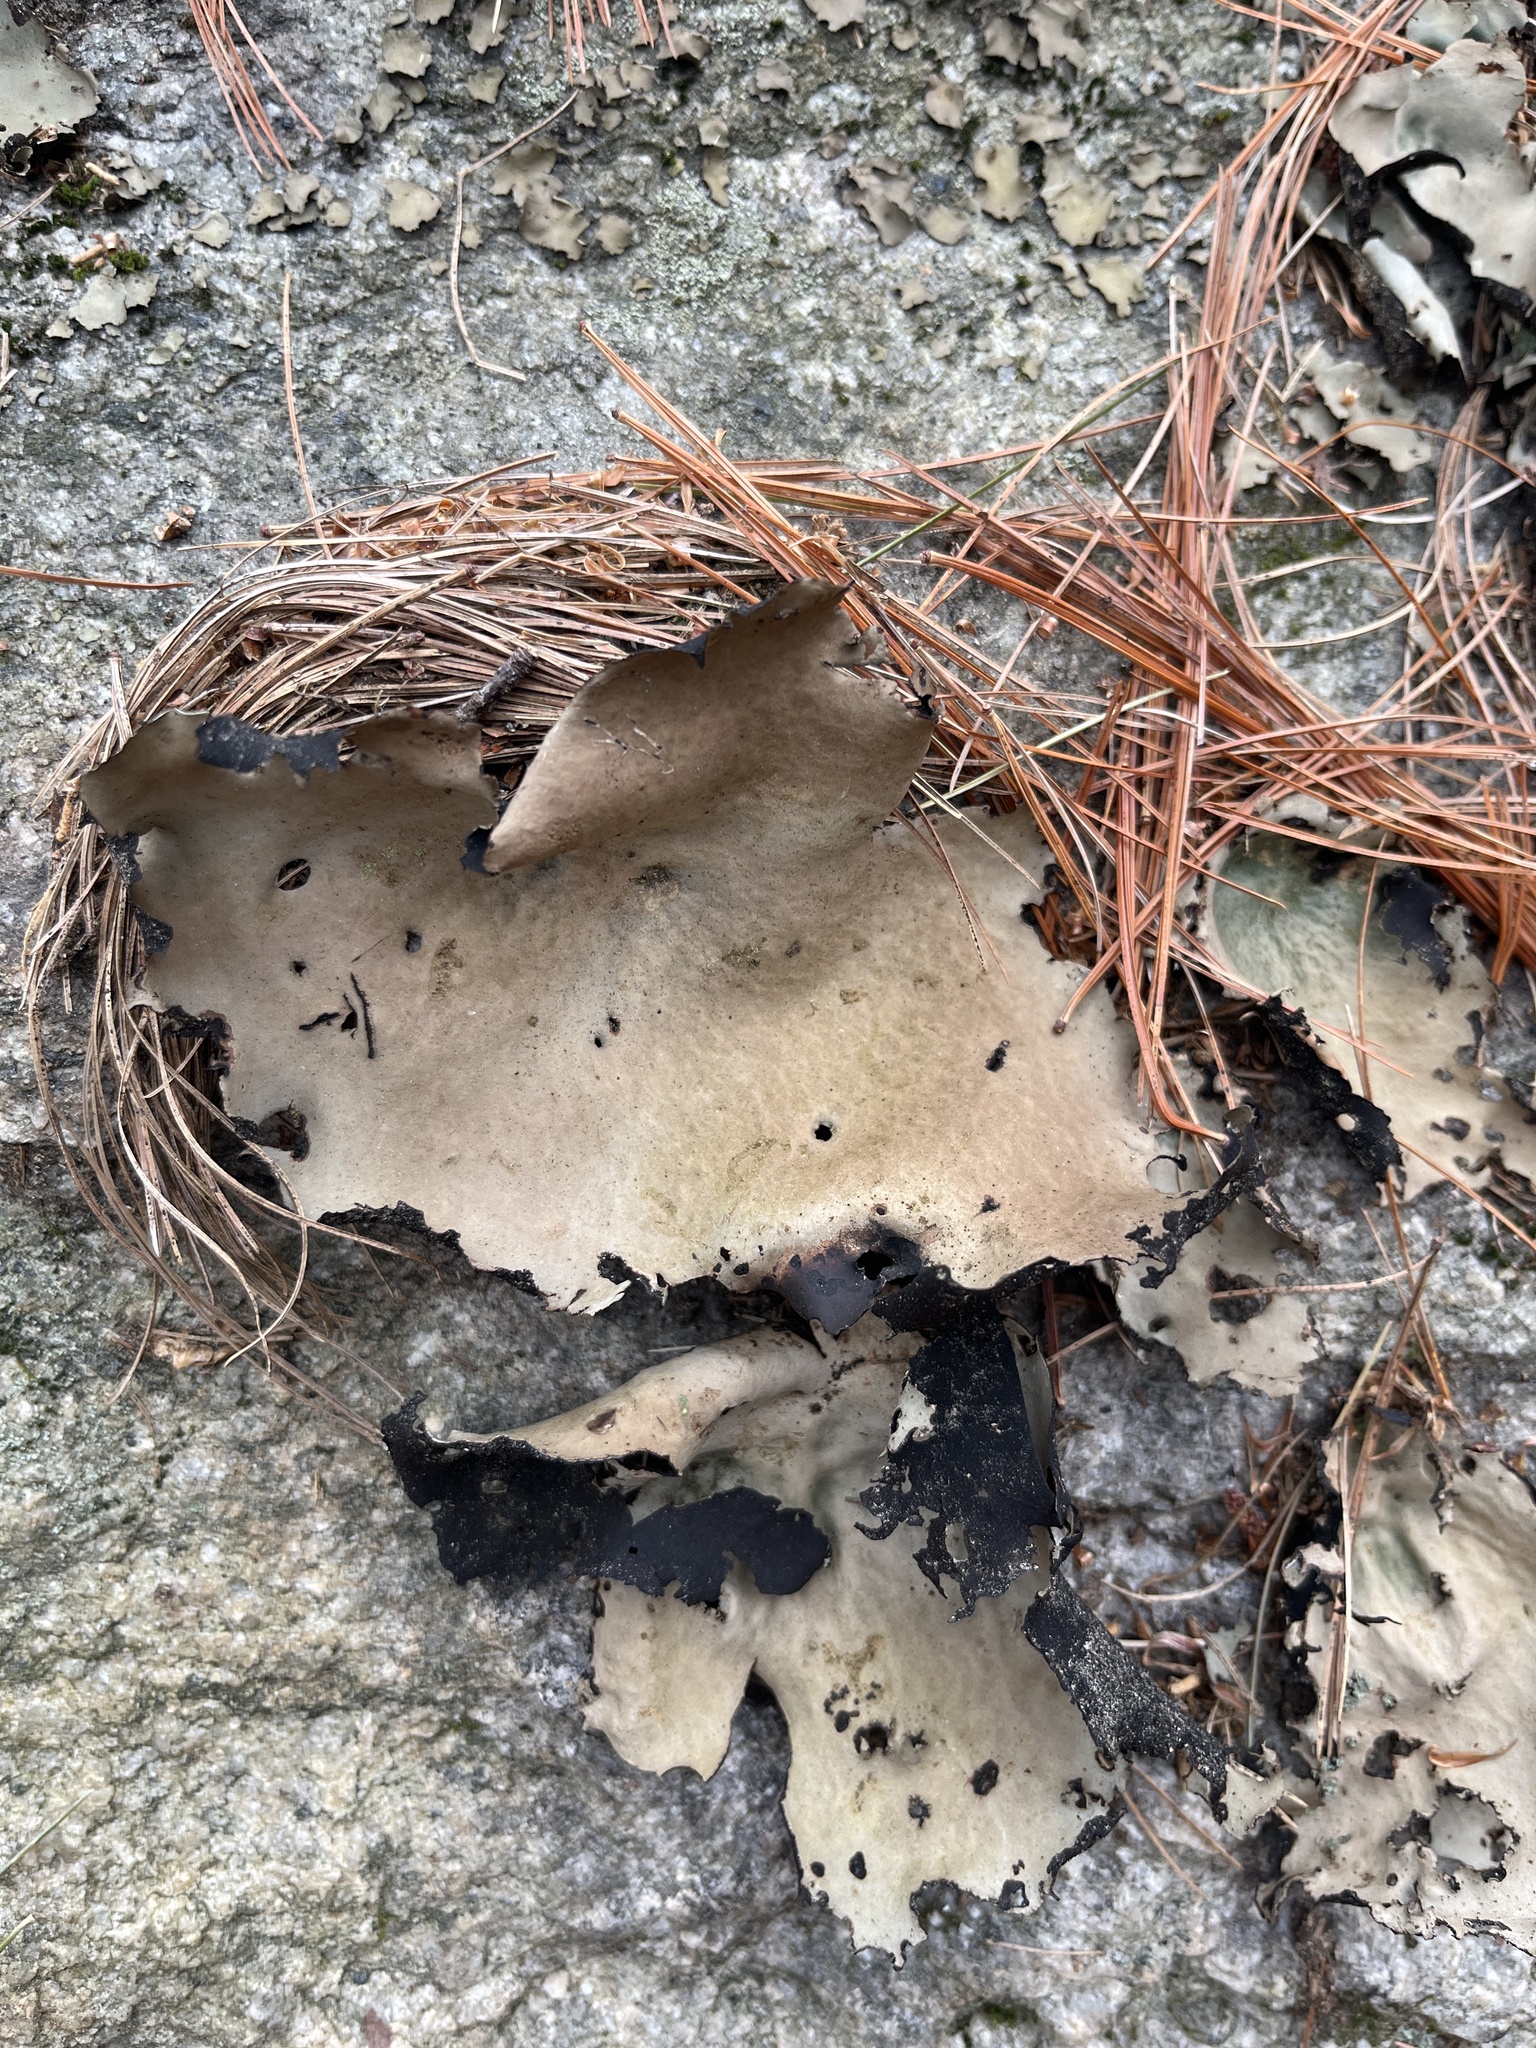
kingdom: Fungi
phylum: Ascomycota
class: Lecanoromycetes
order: Umbilicariales
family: Umbilicariaceae
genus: Umbilicaria
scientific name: Umbilicaria mammulata
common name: Smooth rock tripe
